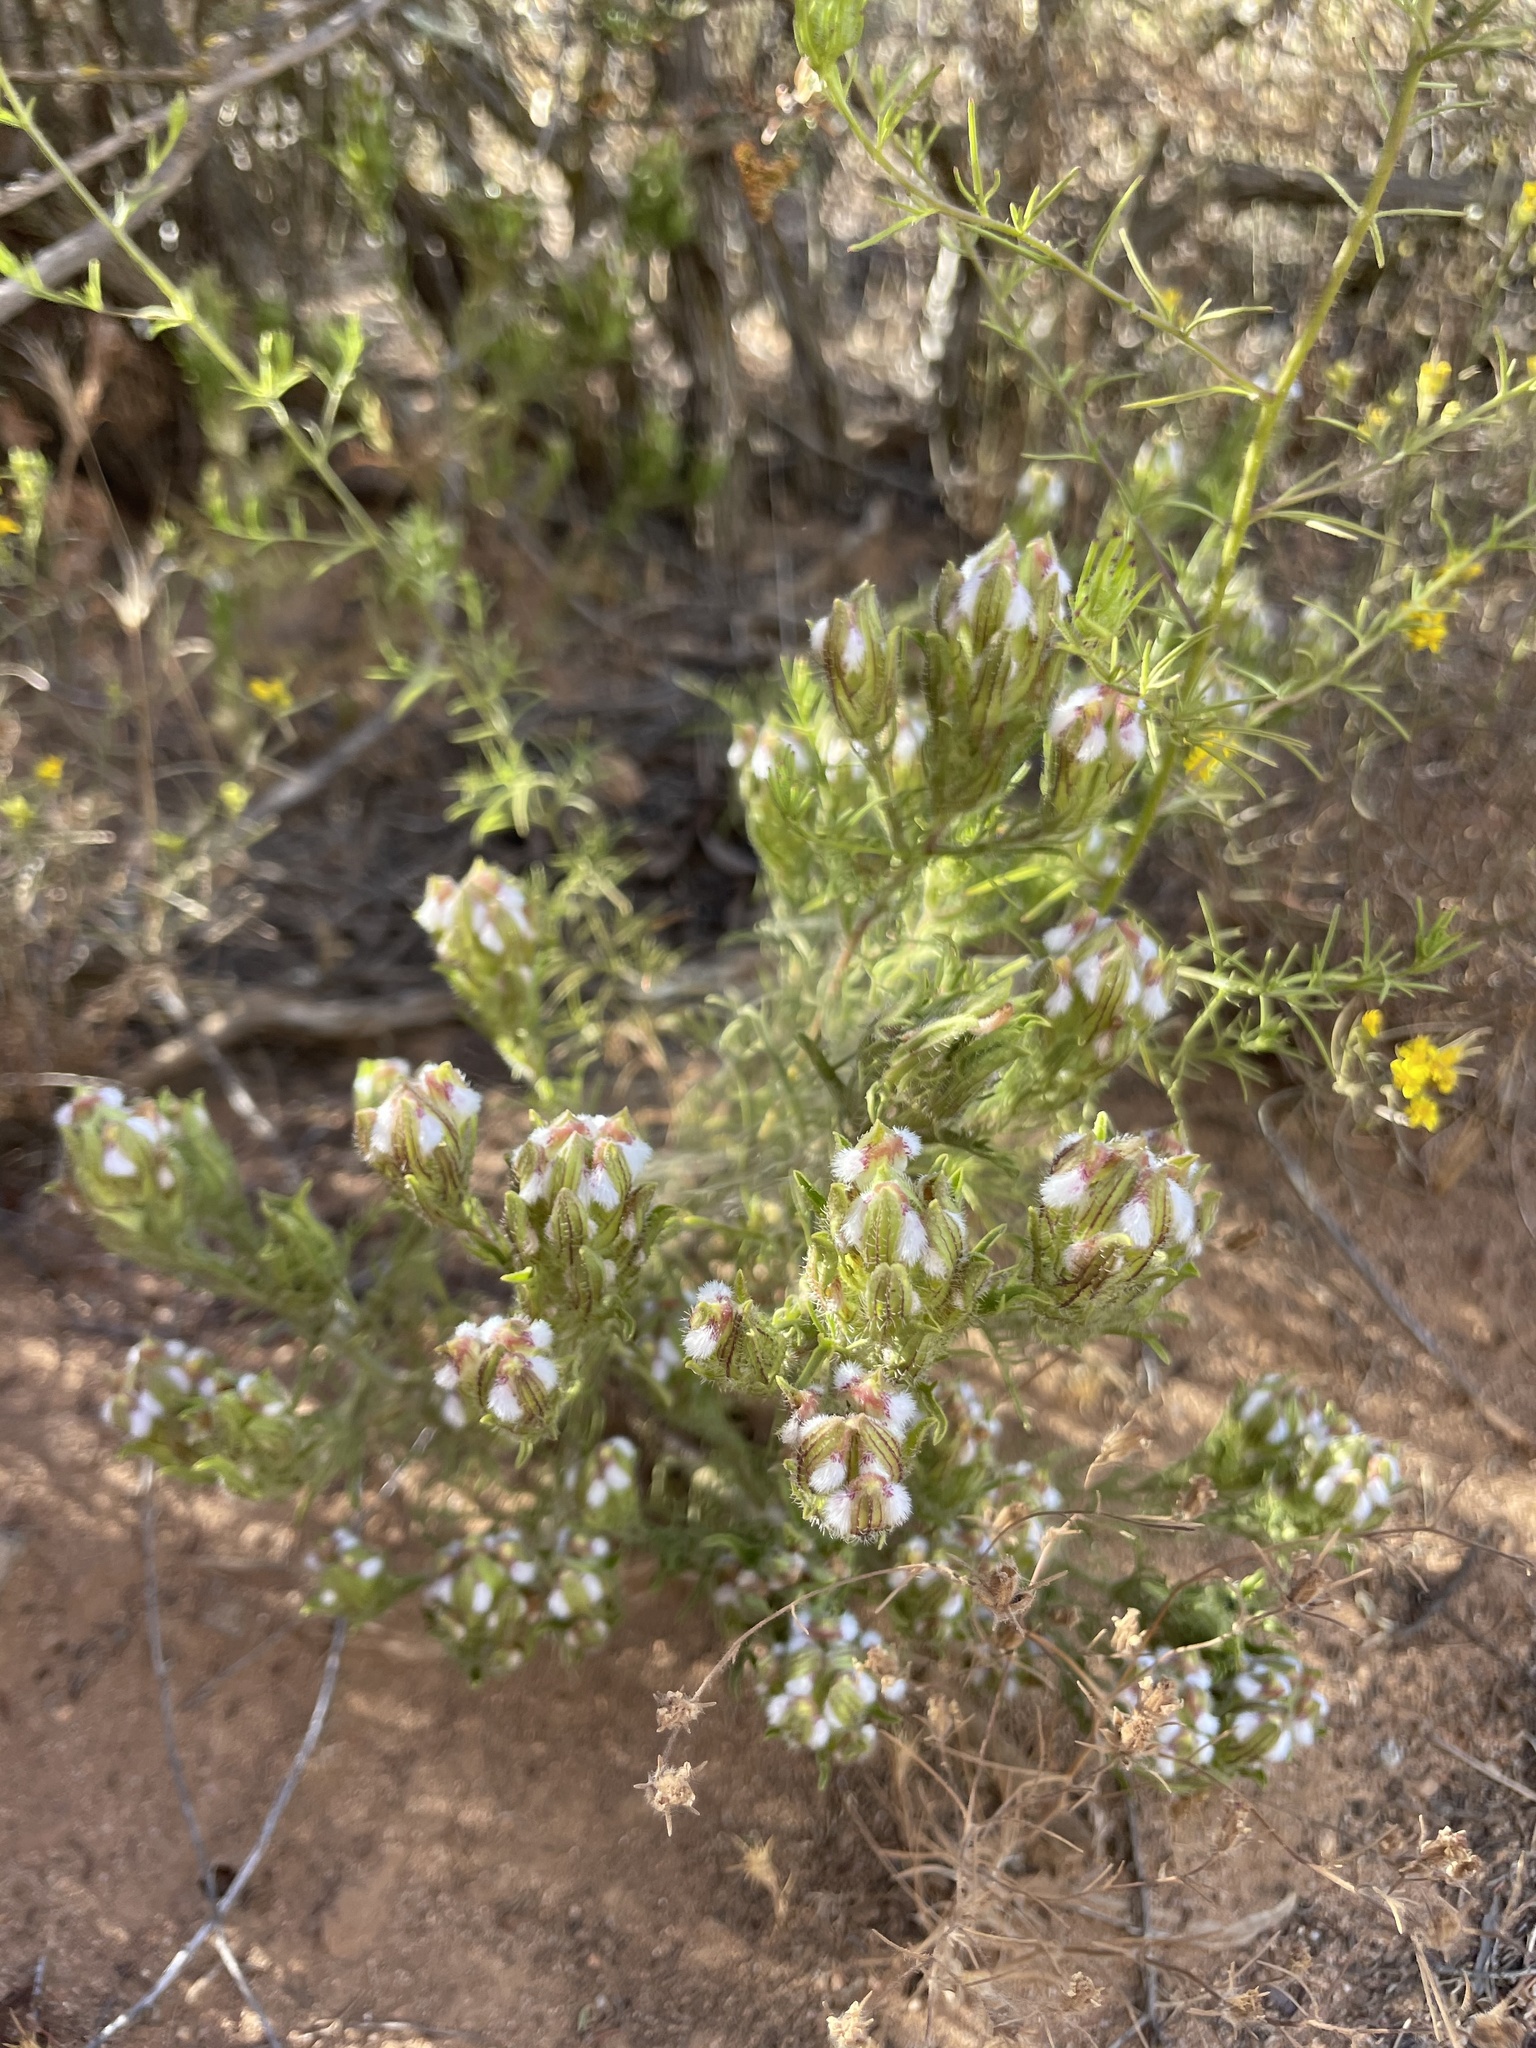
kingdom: Plantae
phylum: Tracheophyta
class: Magnoliopsida
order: Lamiales
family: Orobanchaceae
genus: Dicranostegia
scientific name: Dicranostegia orcuttiana
